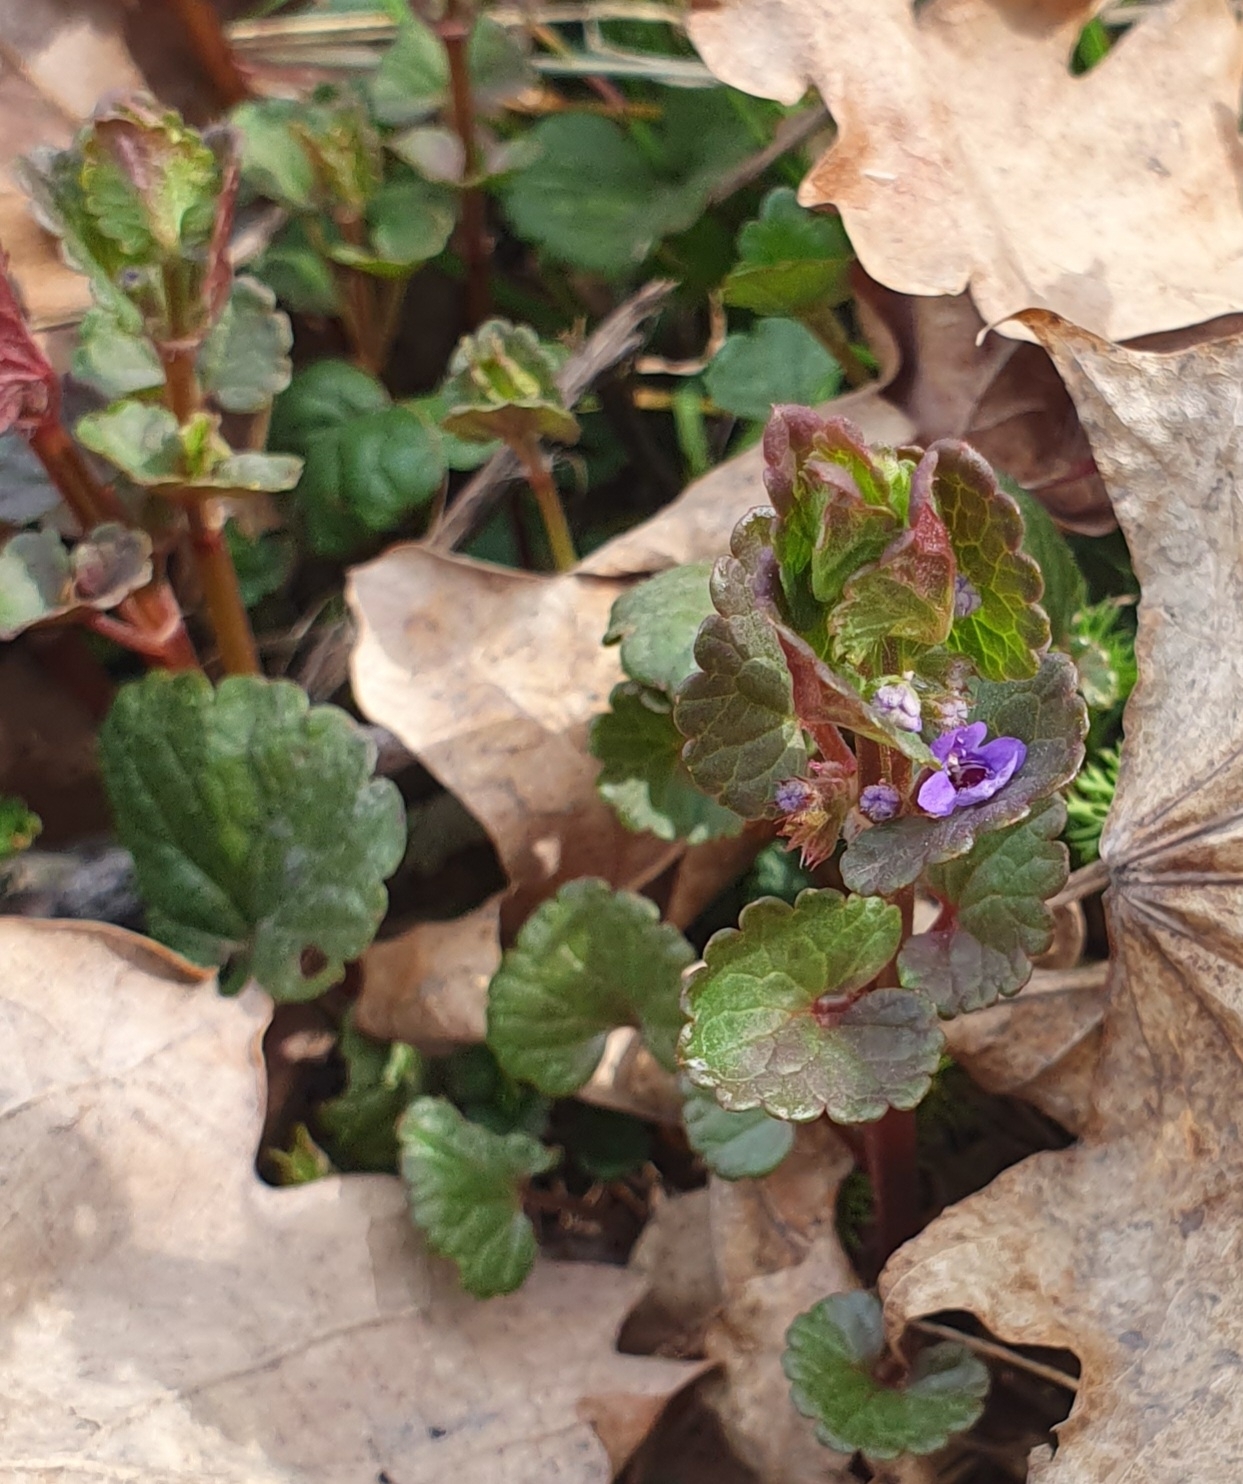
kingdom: Plantae
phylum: Tracheophyta
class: Magnoliopsida
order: Lamiales
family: Lamiaceae
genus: Glechoma
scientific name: Glechoma hederacea
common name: Ground ivy
